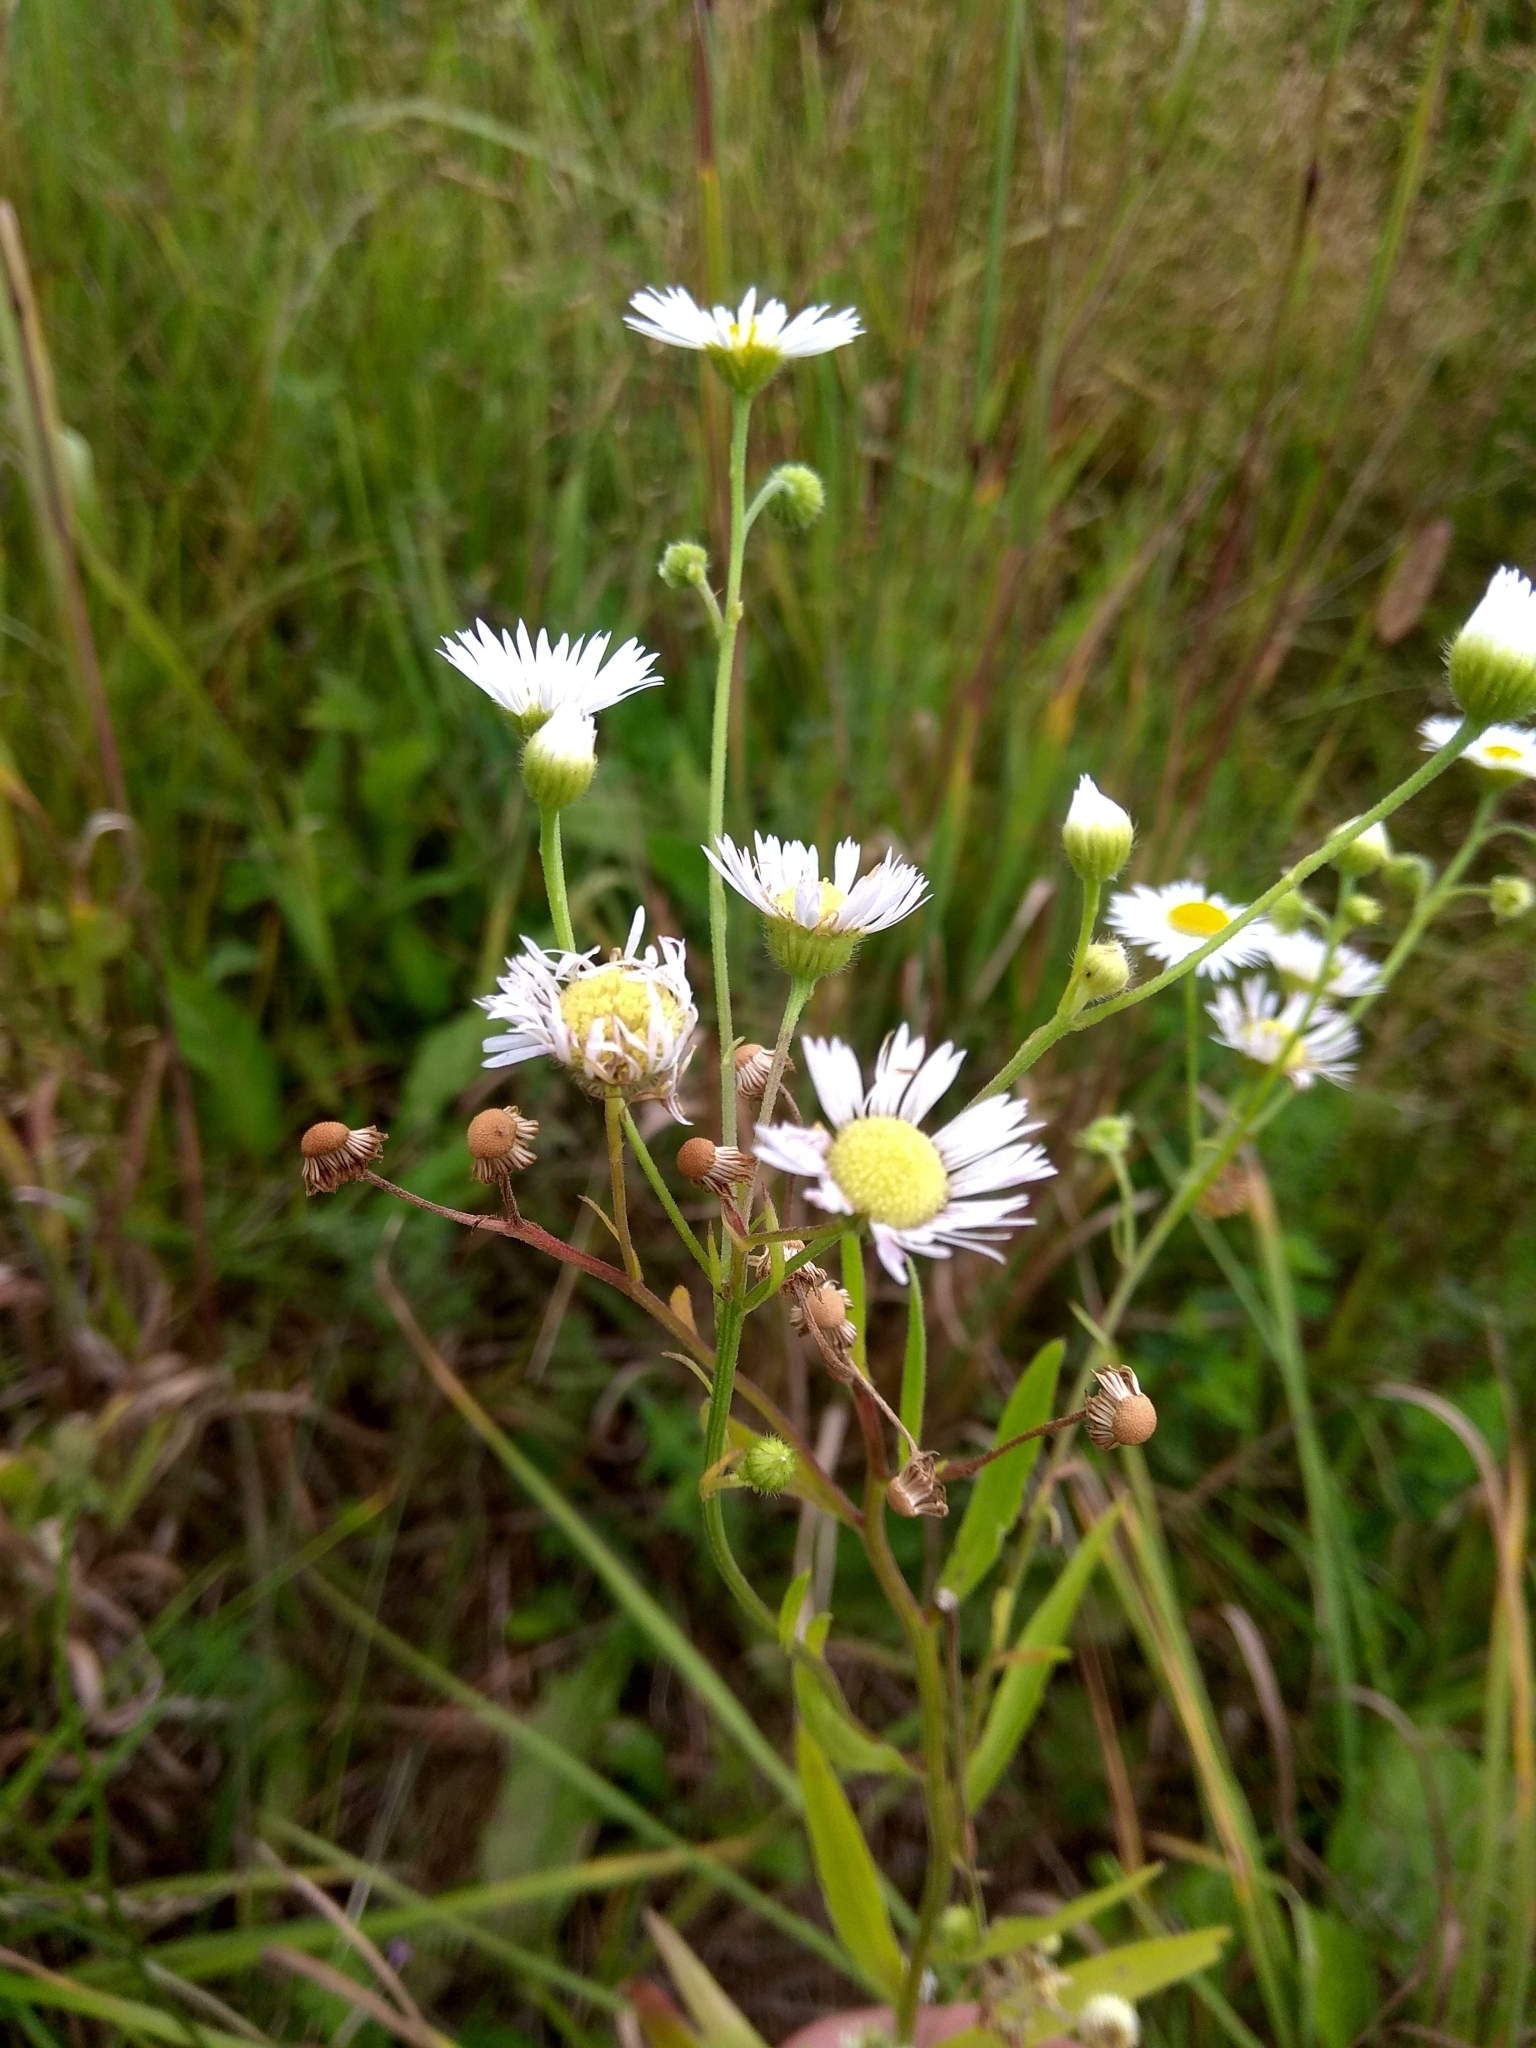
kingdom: Plantae
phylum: Tracheophyta
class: Magnoliopsida
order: Asterales
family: Asteraceae
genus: Erigeron
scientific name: Erigeron annuus
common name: Tall fleabane
